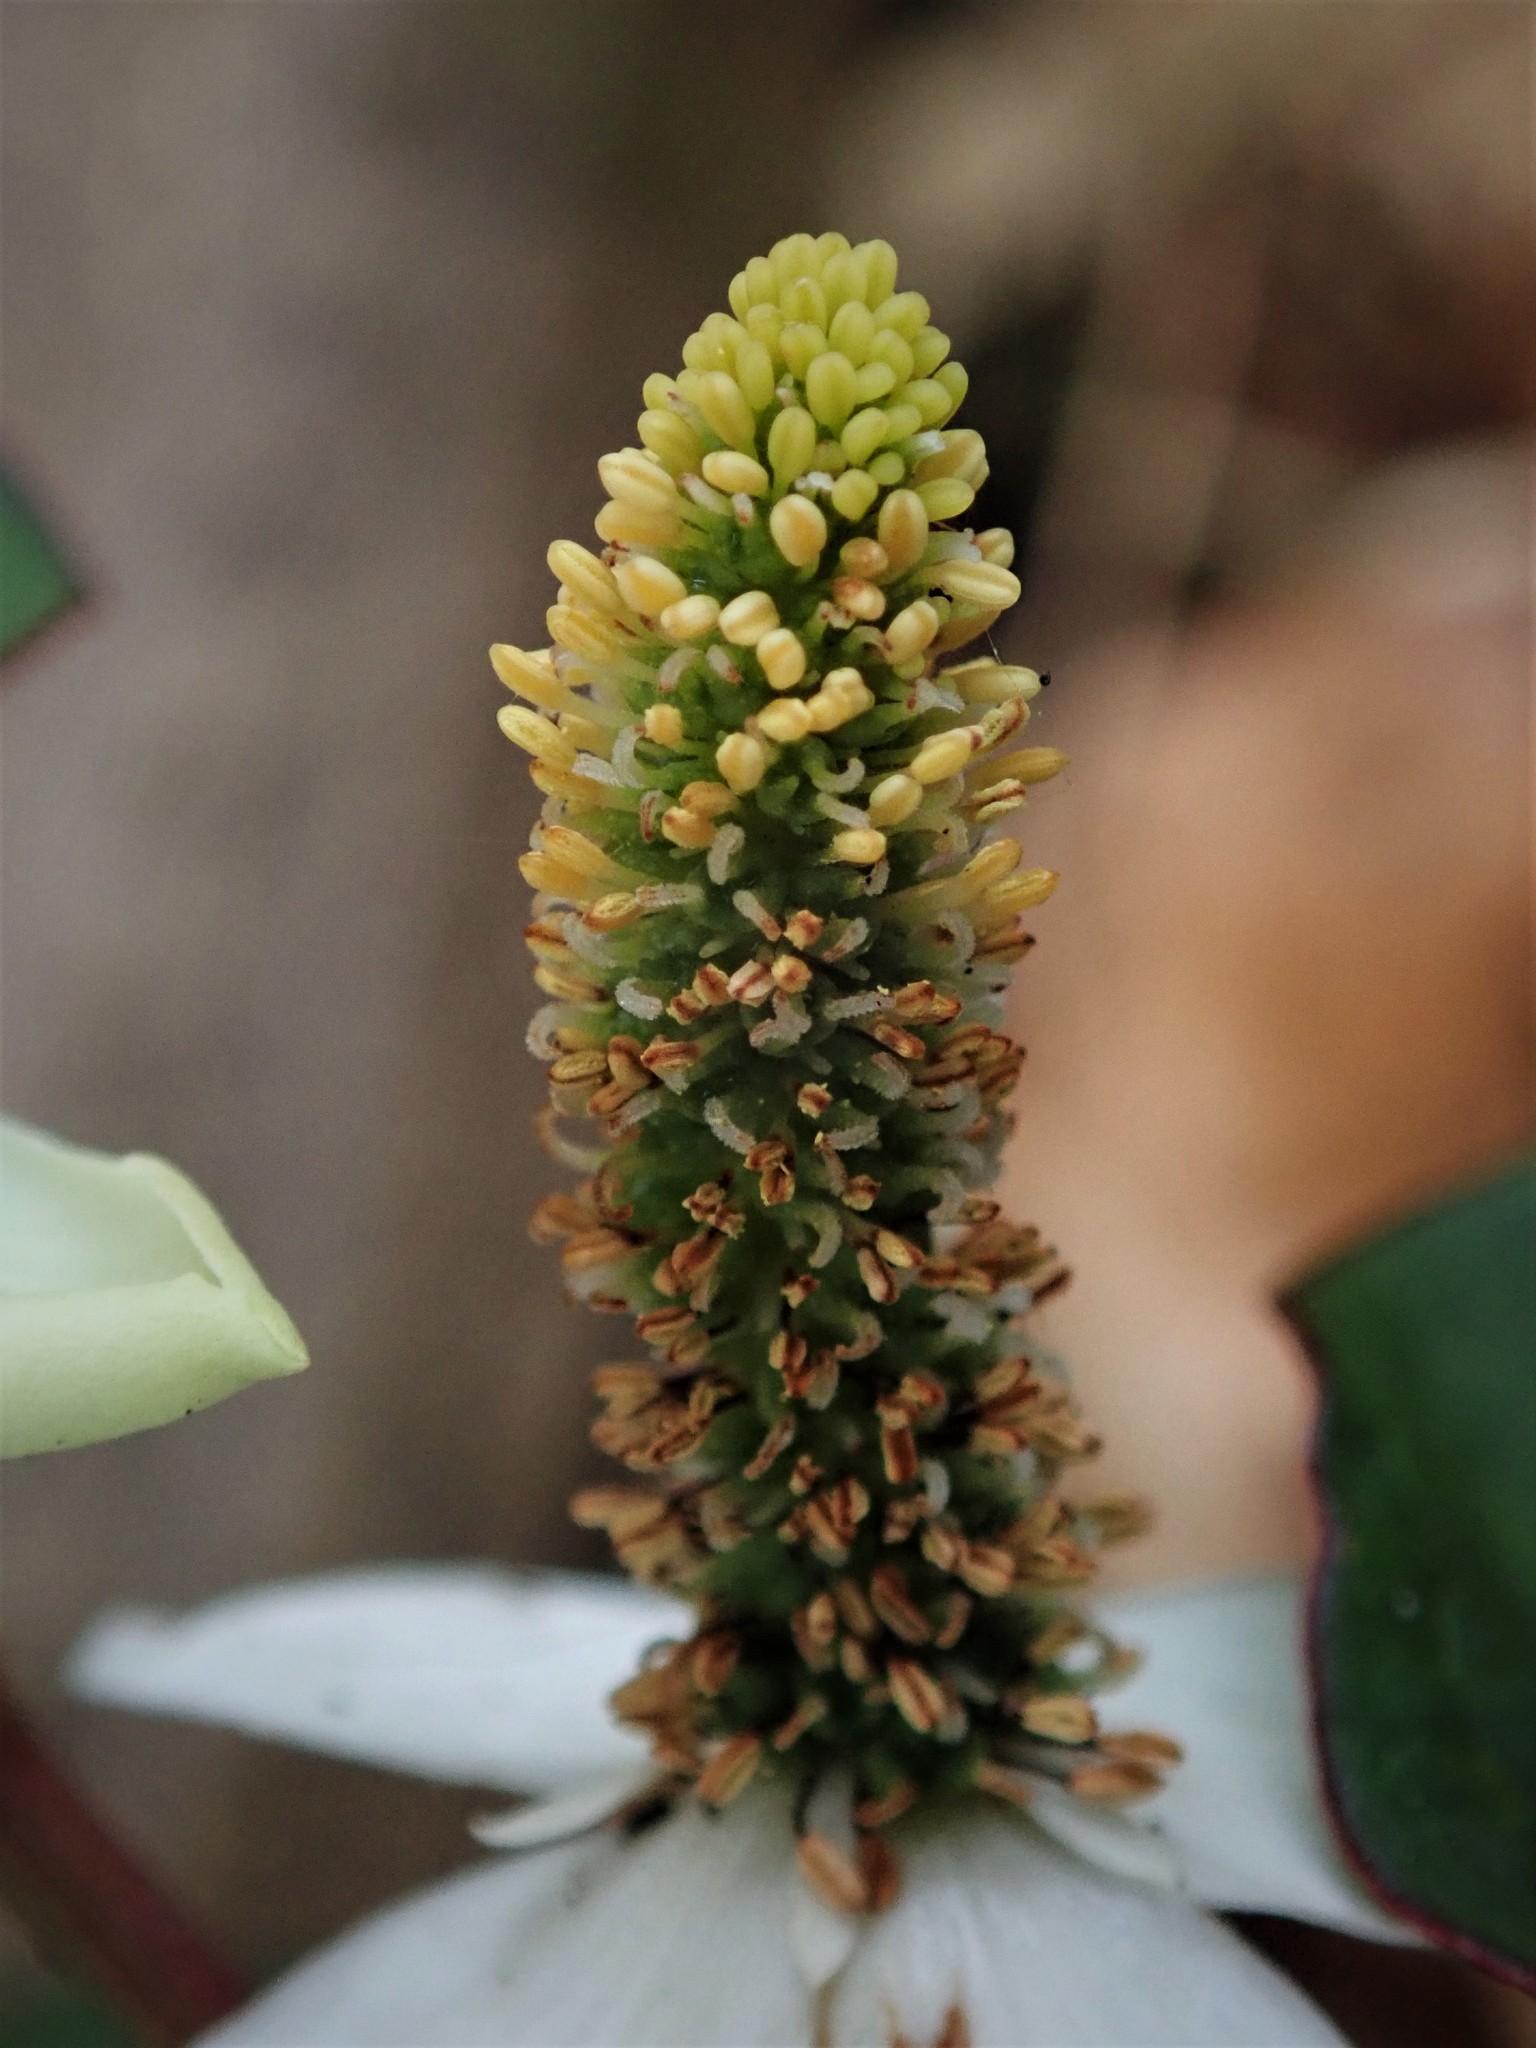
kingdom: Plantae
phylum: Tracheophyta
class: Magnoliopsida
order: Piperales
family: Saururaceae
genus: Houttuynia
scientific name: Houttuynia cordata
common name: Chameleon
